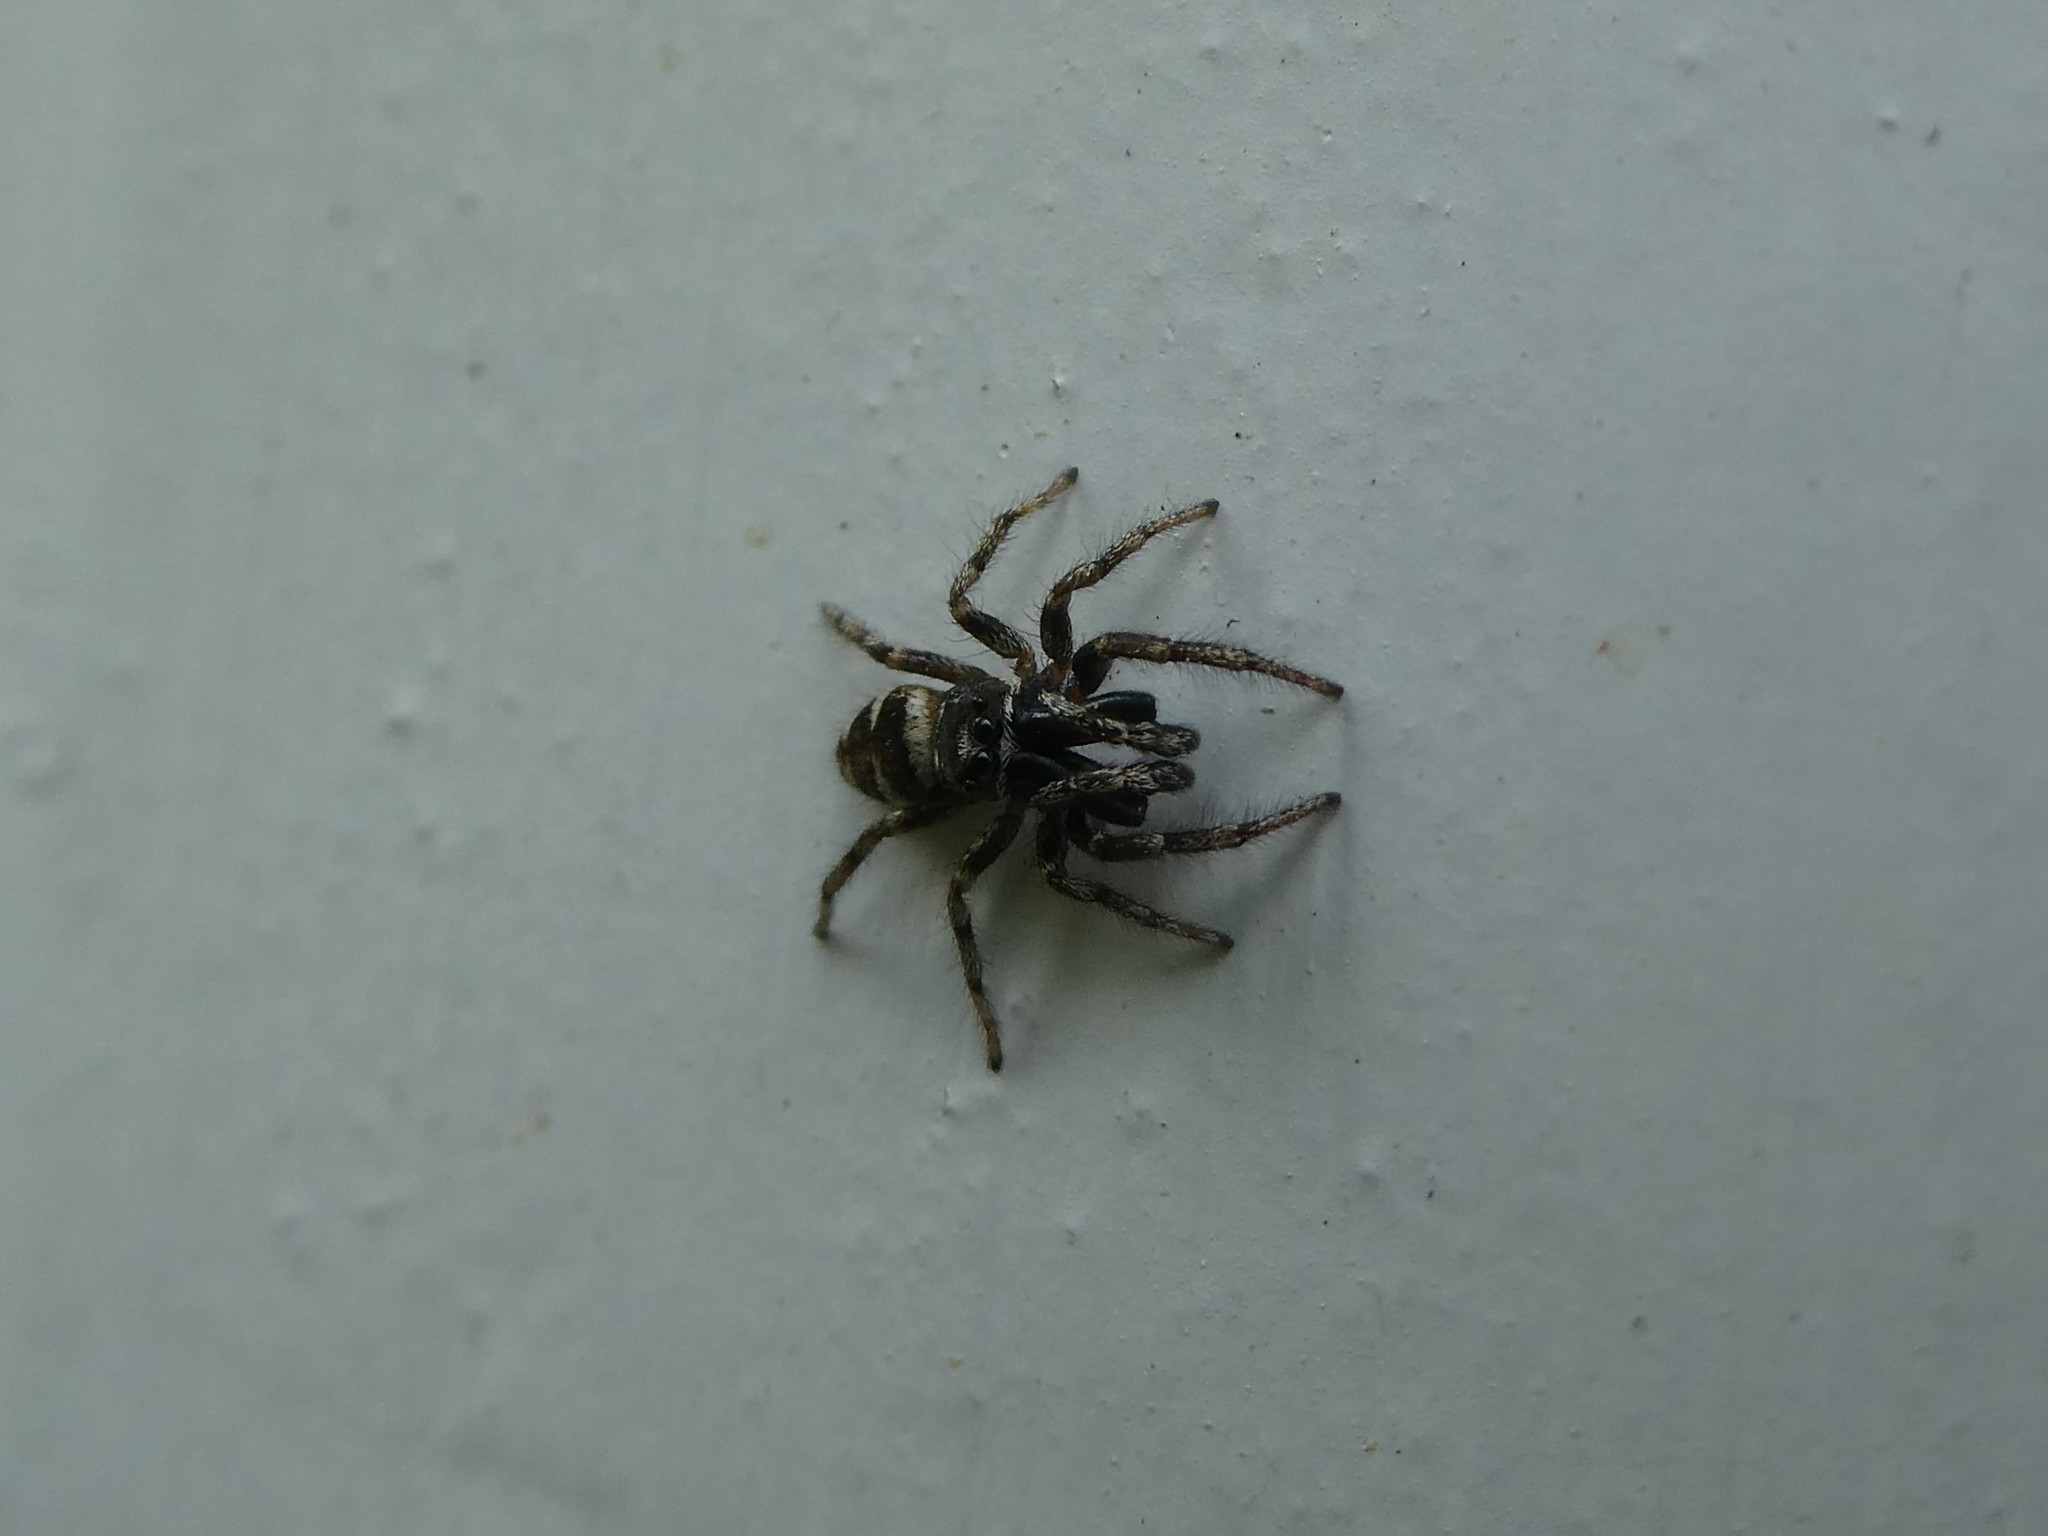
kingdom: Animalia
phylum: Arthropoda
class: Arachnida
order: Araneae
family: Salticidae
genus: Salticus
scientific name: Salticus scenicus
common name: Zebra jumper
